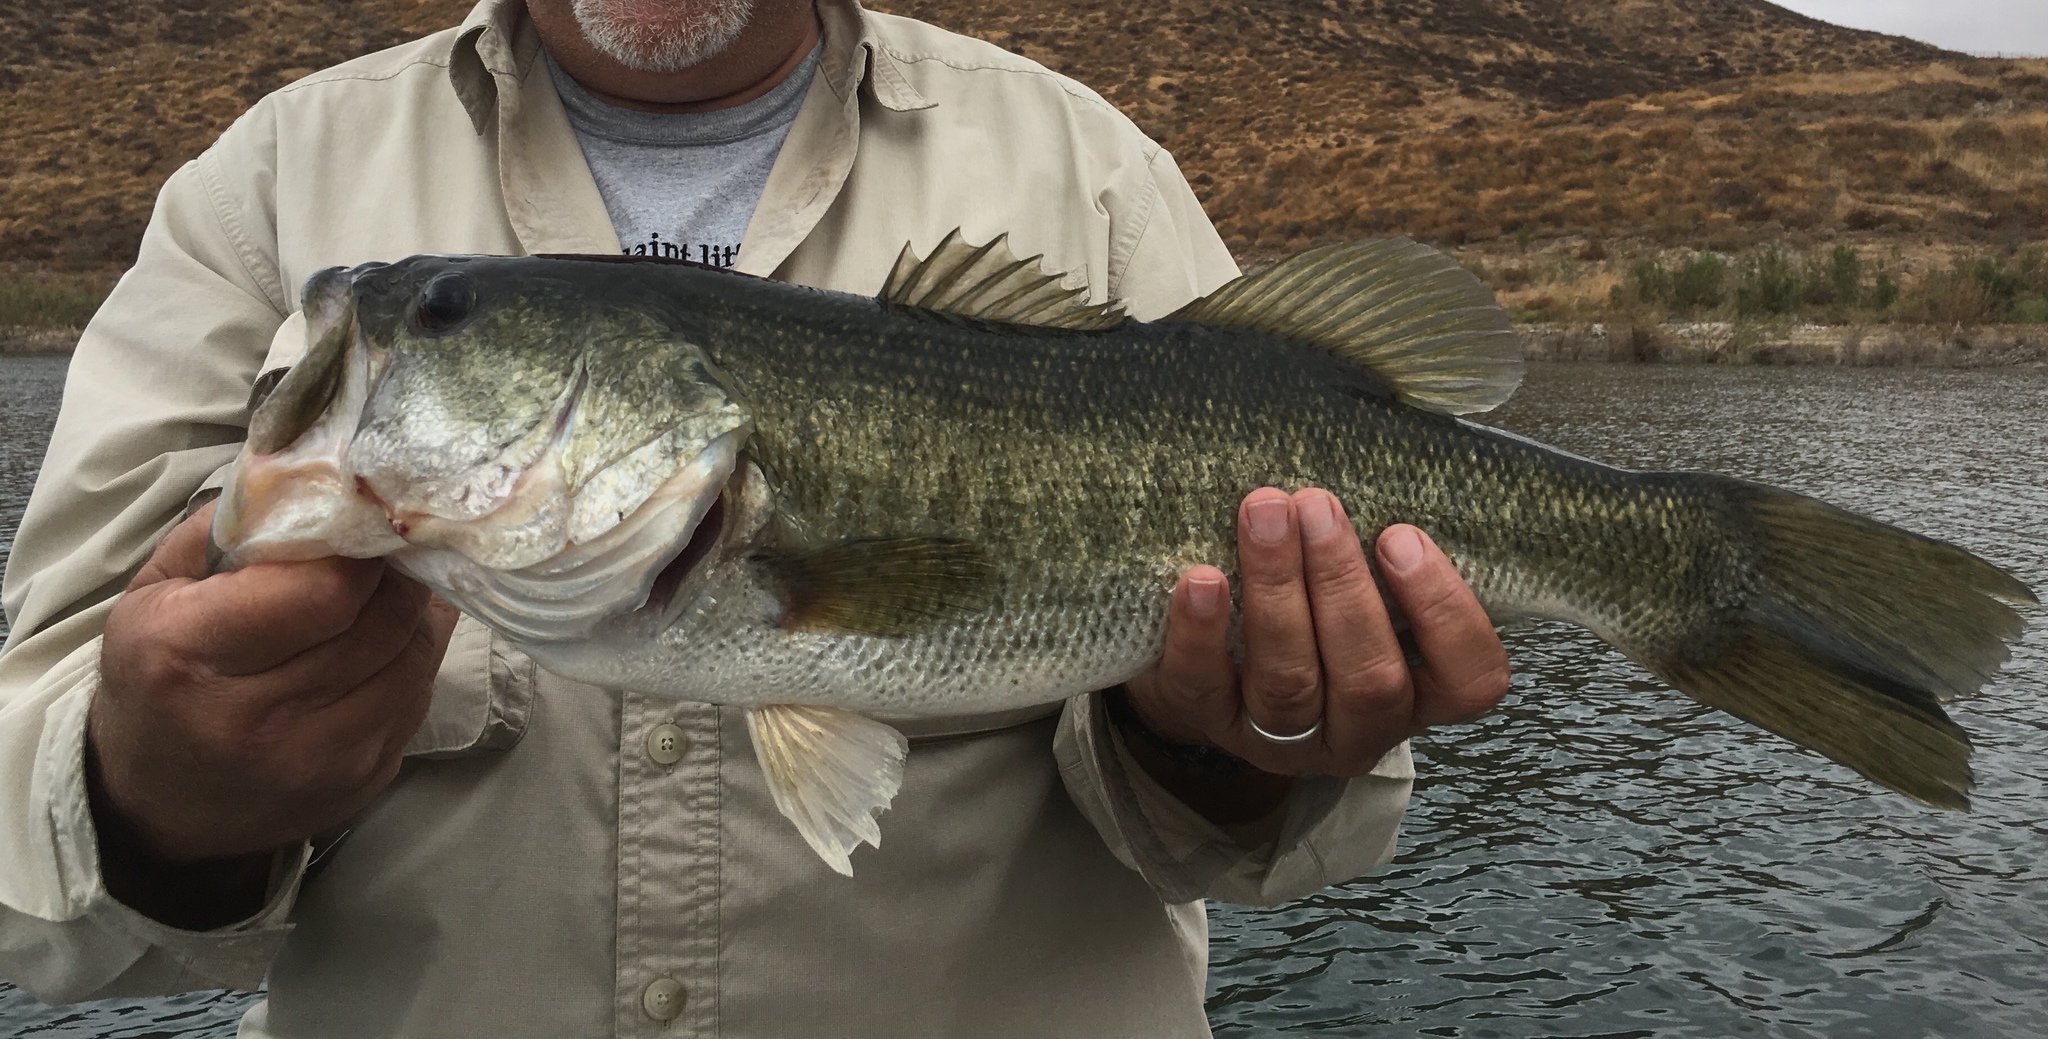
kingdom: Animalia
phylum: Chordata
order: Perciformes
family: Centrarchidae
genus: Micropterus
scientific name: Micropterus
